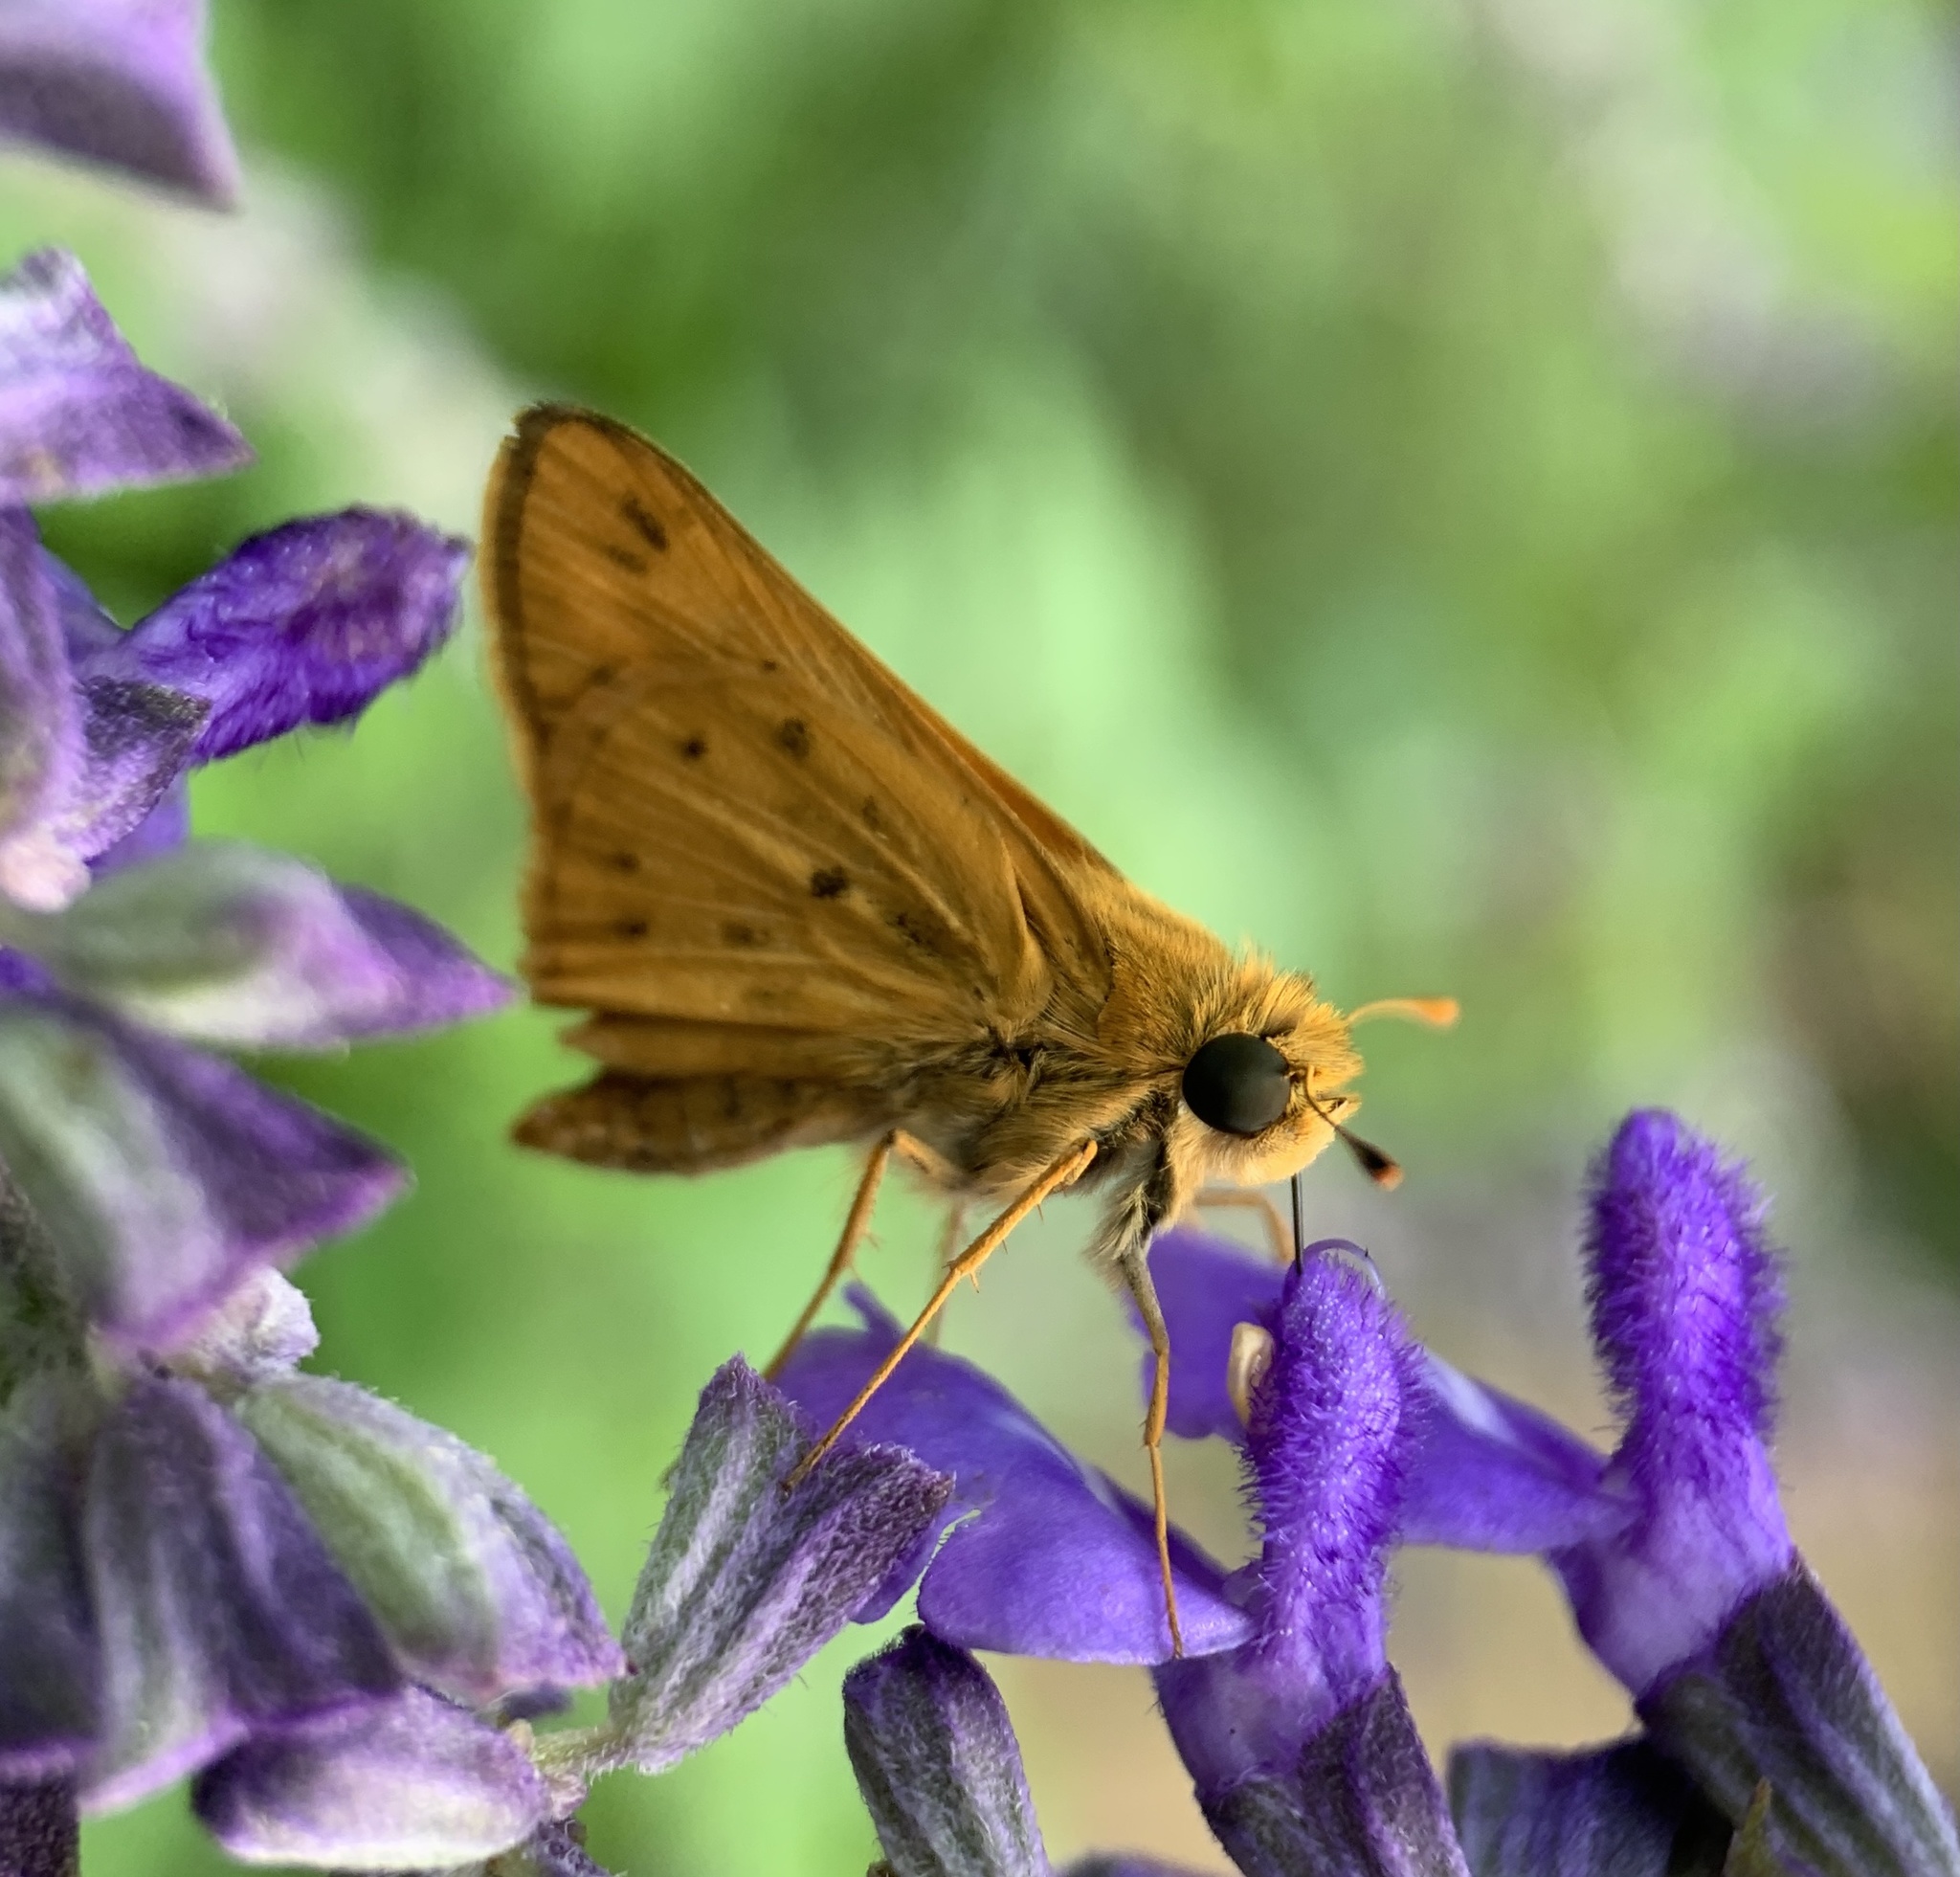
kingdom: Animalia
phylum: Arthropoda
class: Insecta
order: Lepidoptera
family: Hesperiidae
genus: Hylephila
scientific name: Hylephila phyleus
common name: Fiery skipper
